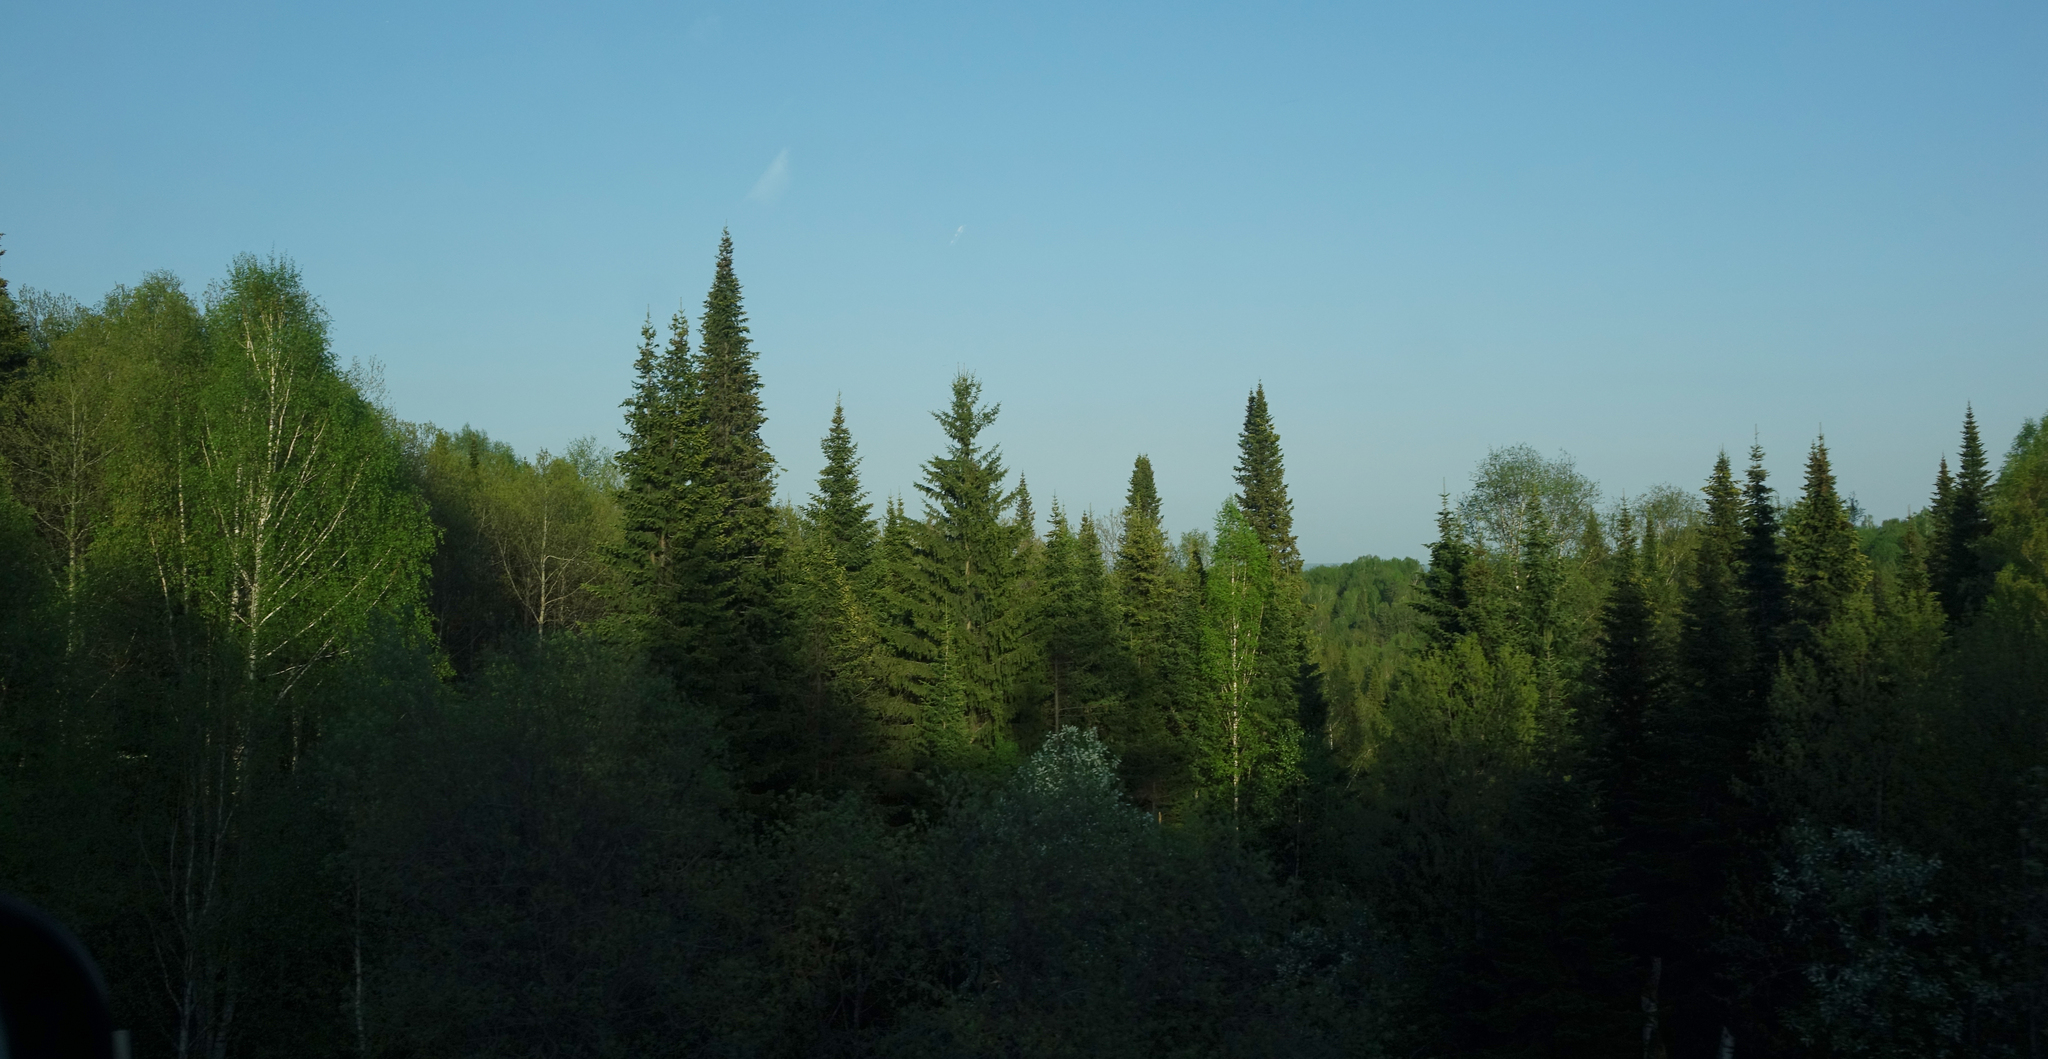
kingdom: Plantae
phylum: Tracheophyta
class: Pinopsida
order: Pinales
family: Pinaceae
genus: Abies
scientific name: Abies sibirica
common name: Siberian fir
